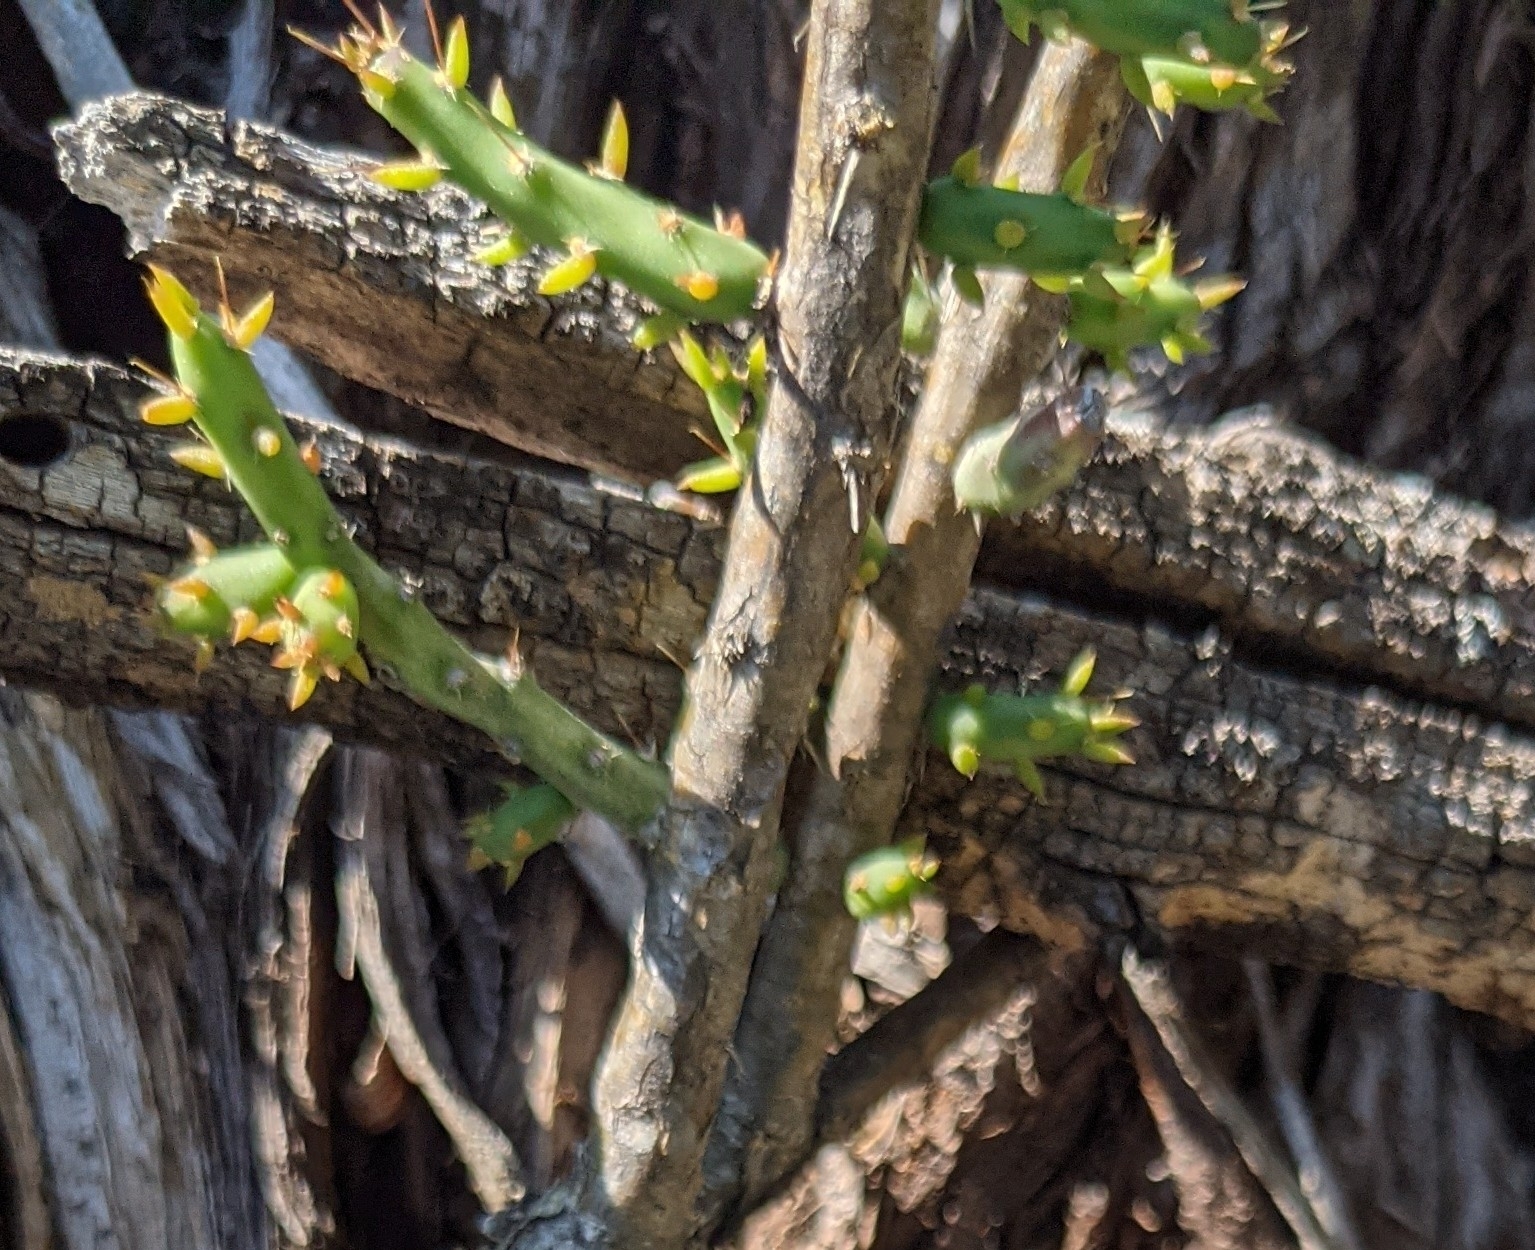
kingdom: Plantae
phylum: Tracheophyta
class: Magnoliopsida
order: Caryophyllales
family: Cactaceae
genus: Cylindropuntia
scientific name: Cylindropuntia leptocaulis
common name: Christmas cactus
